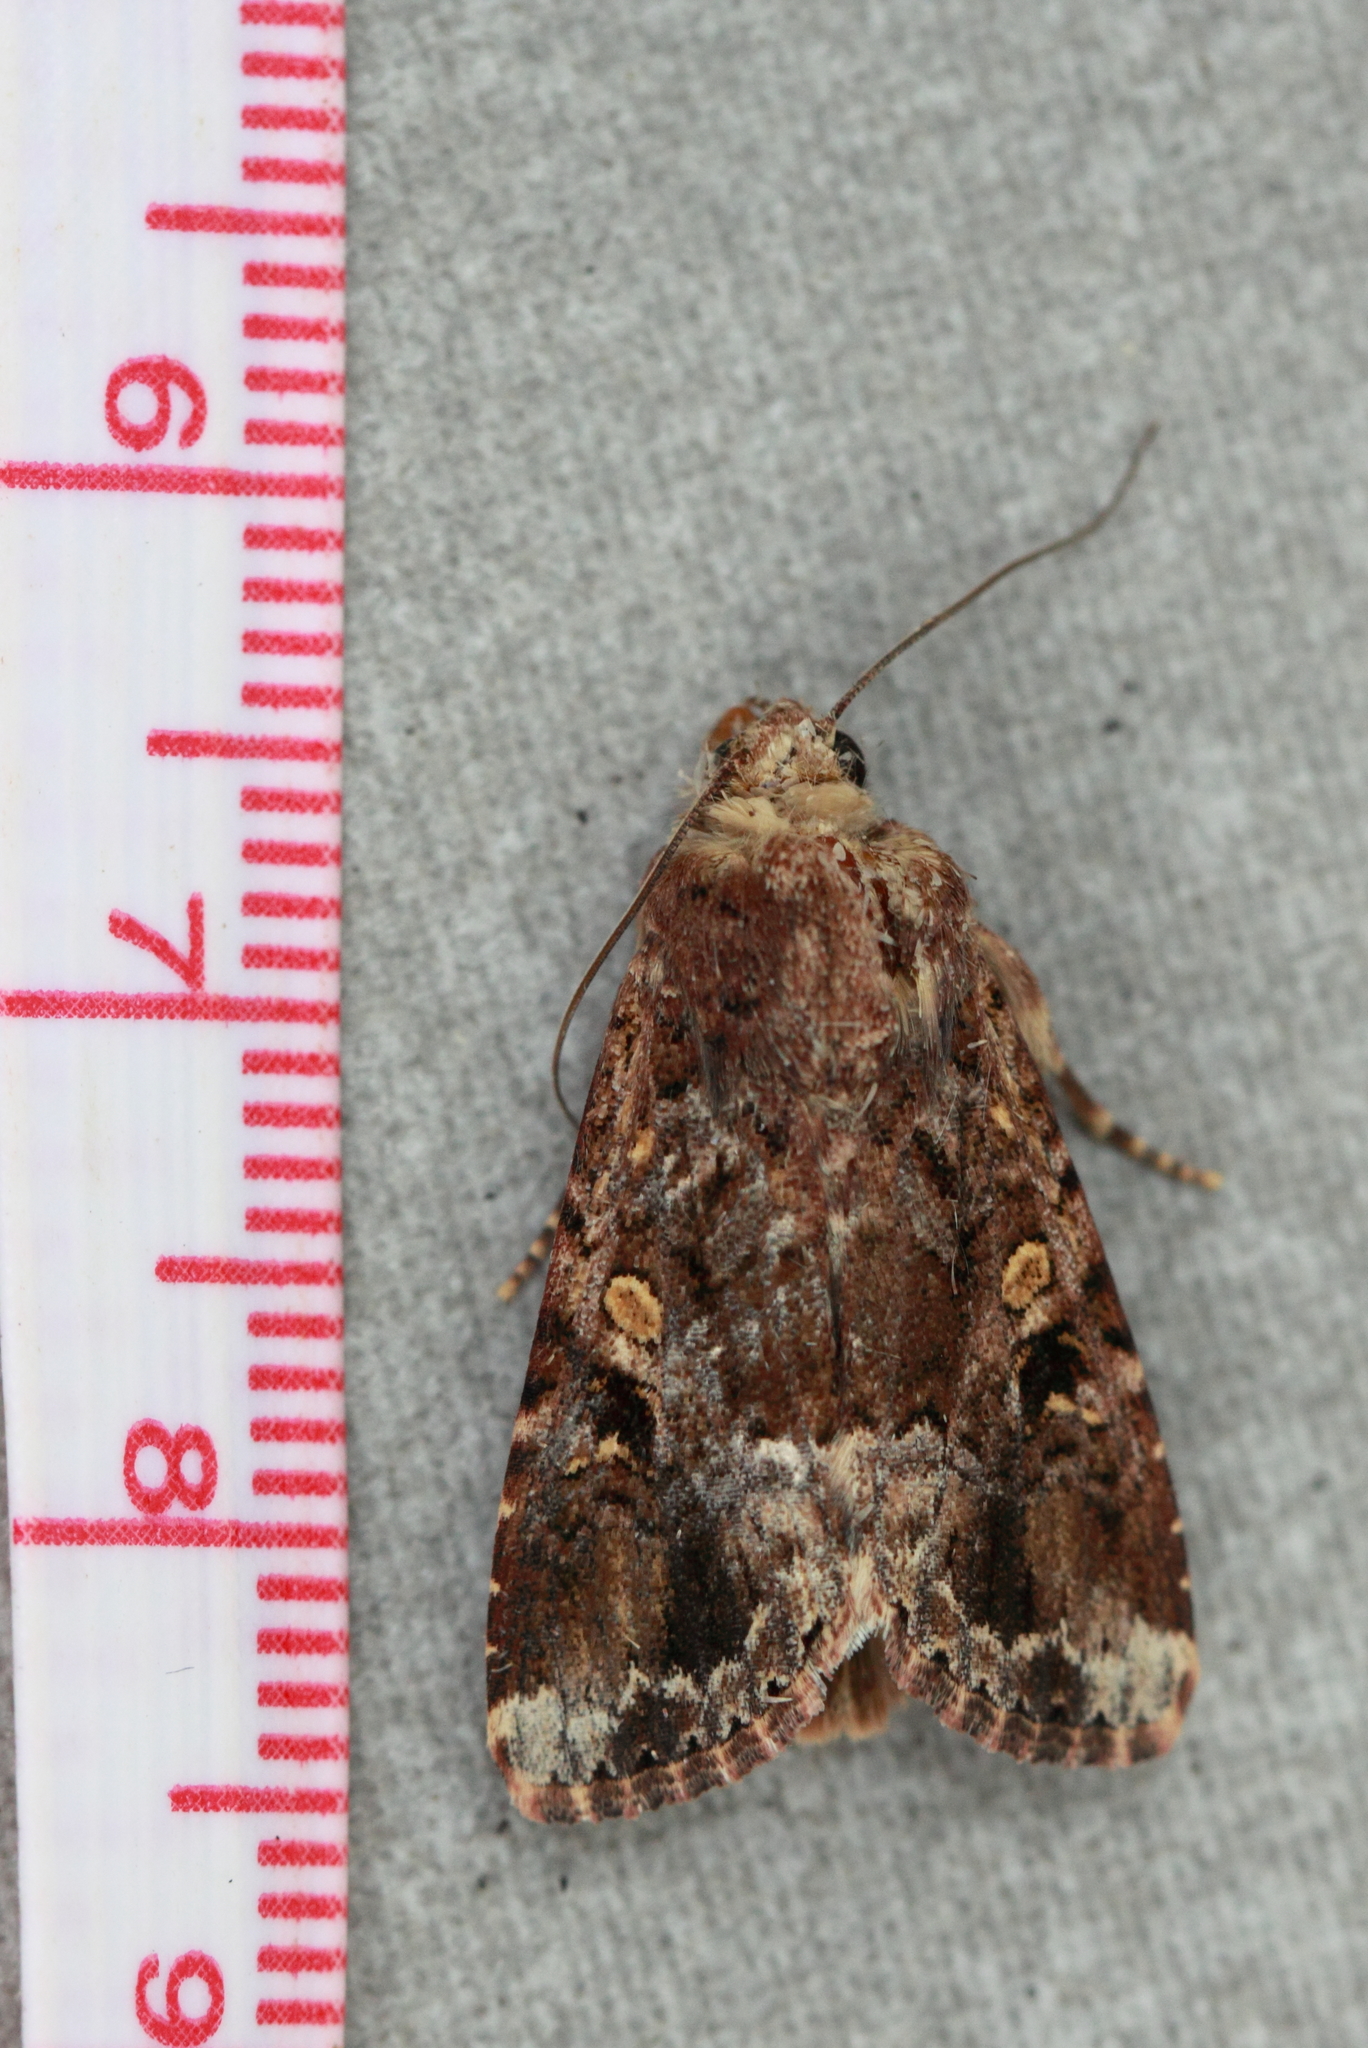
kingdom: Animalia
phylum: Arthropoda
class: Insecta
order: Lepidoptera
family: Noctuidae
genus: Spodoptera
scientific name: Spodoptera mauritia
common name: Lawn armyworm
